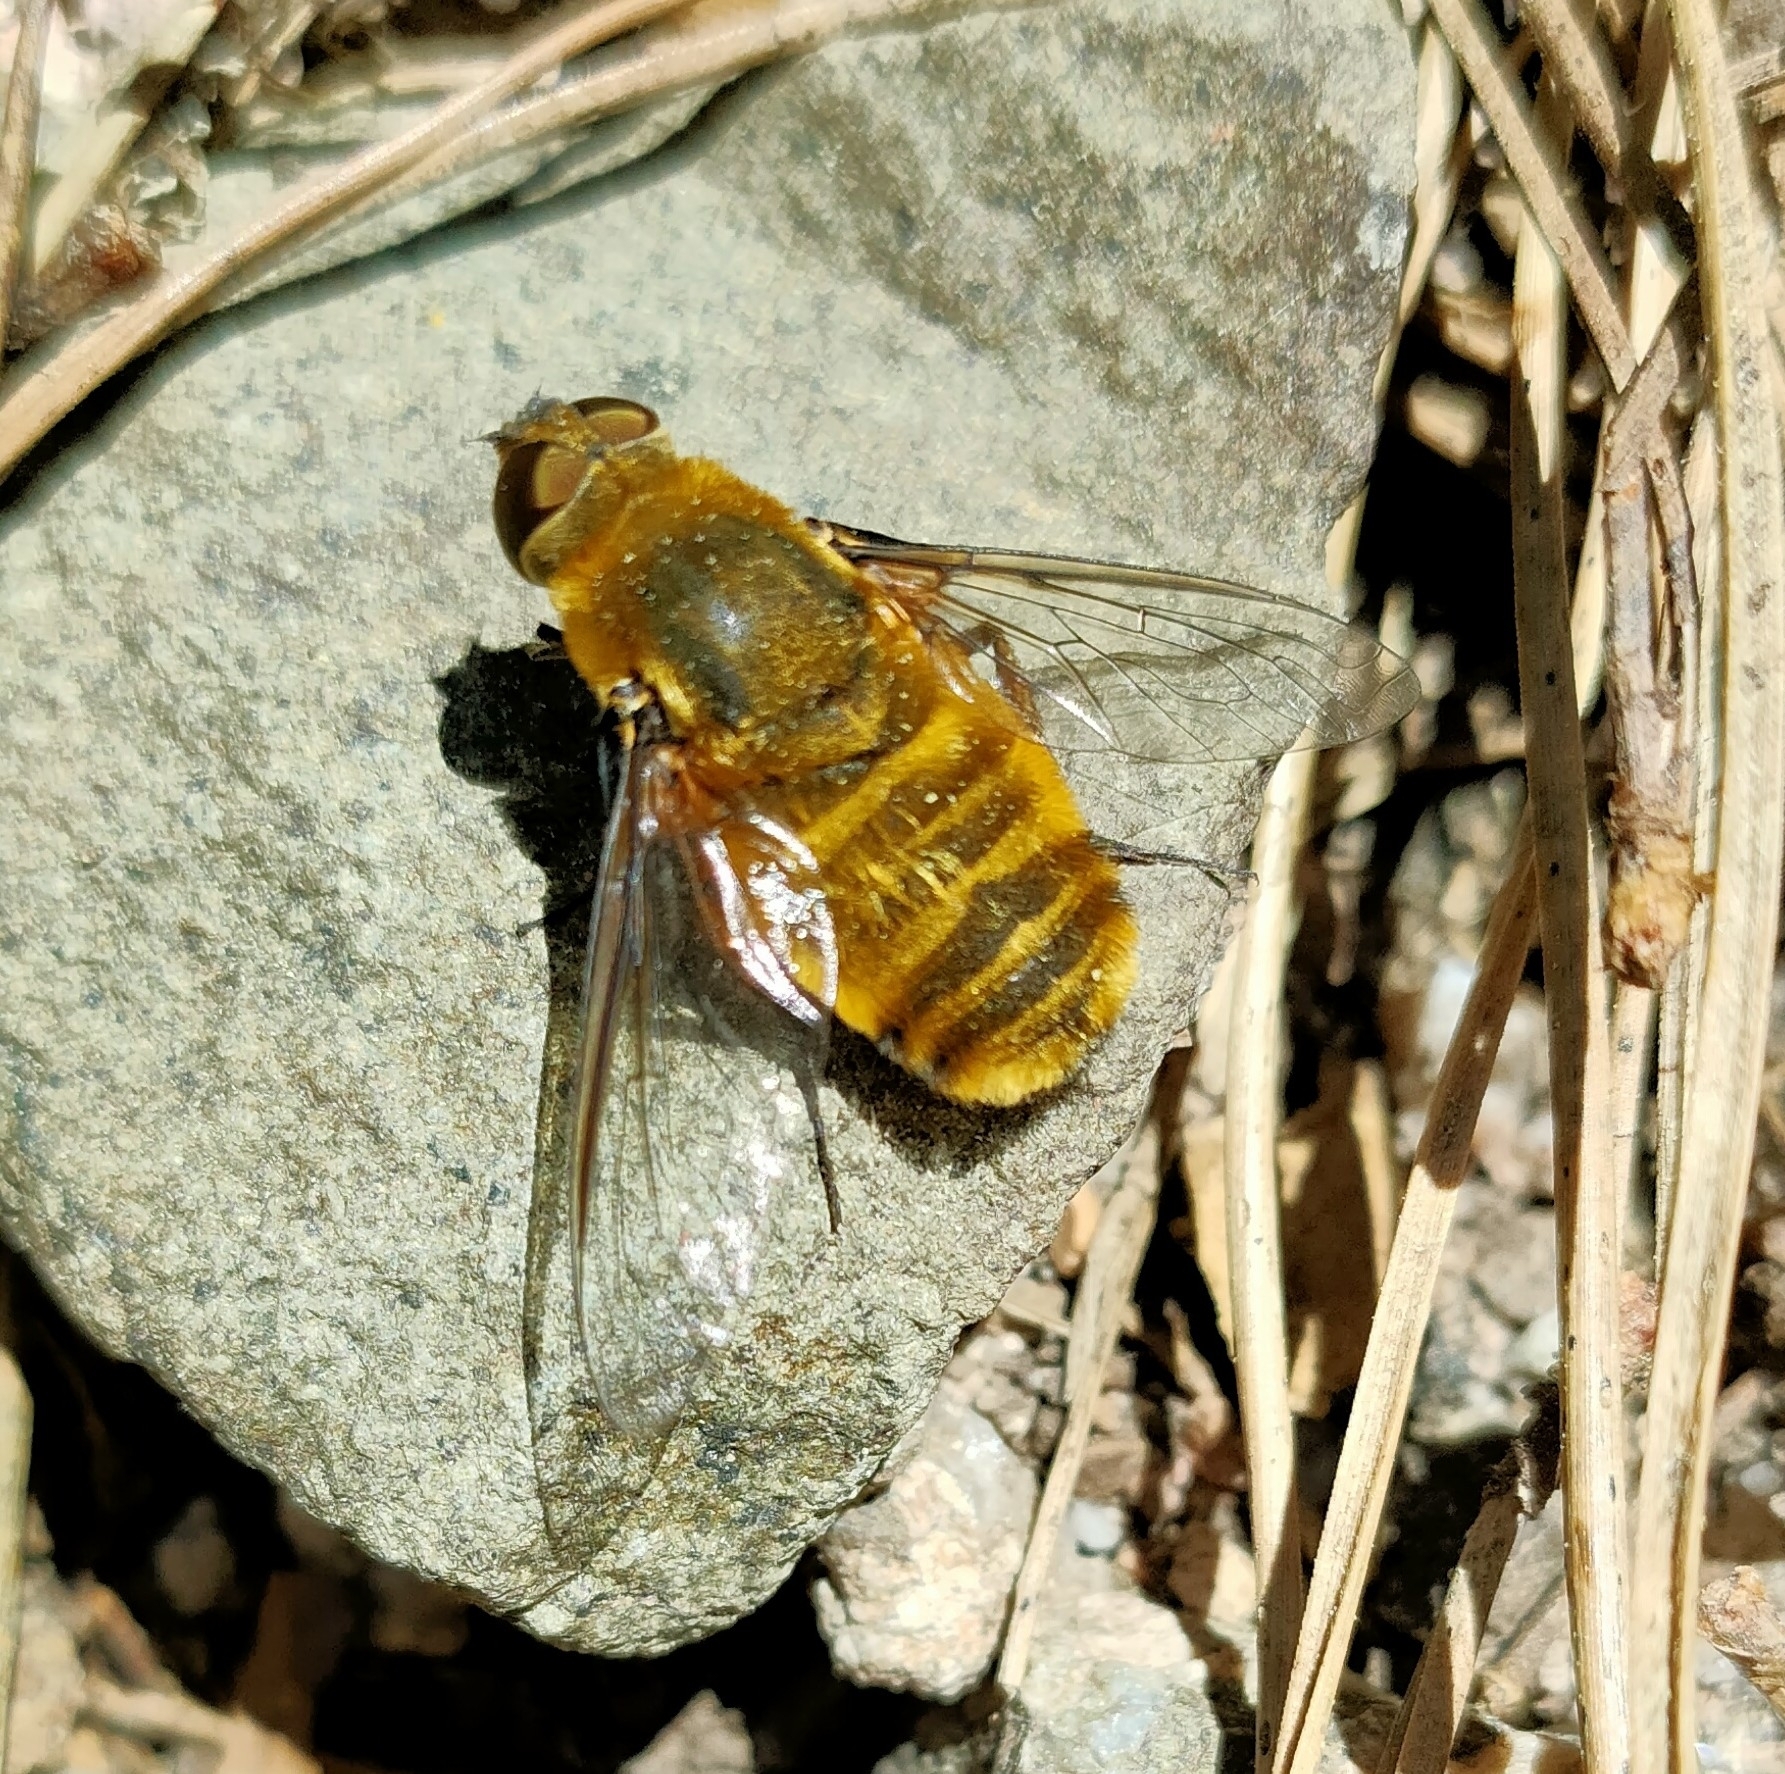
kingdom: Animalia
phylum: Arthropoda
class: Insecta
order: Diptera
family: Bombyliidae
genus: Villa
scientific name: Villa hottentotta
